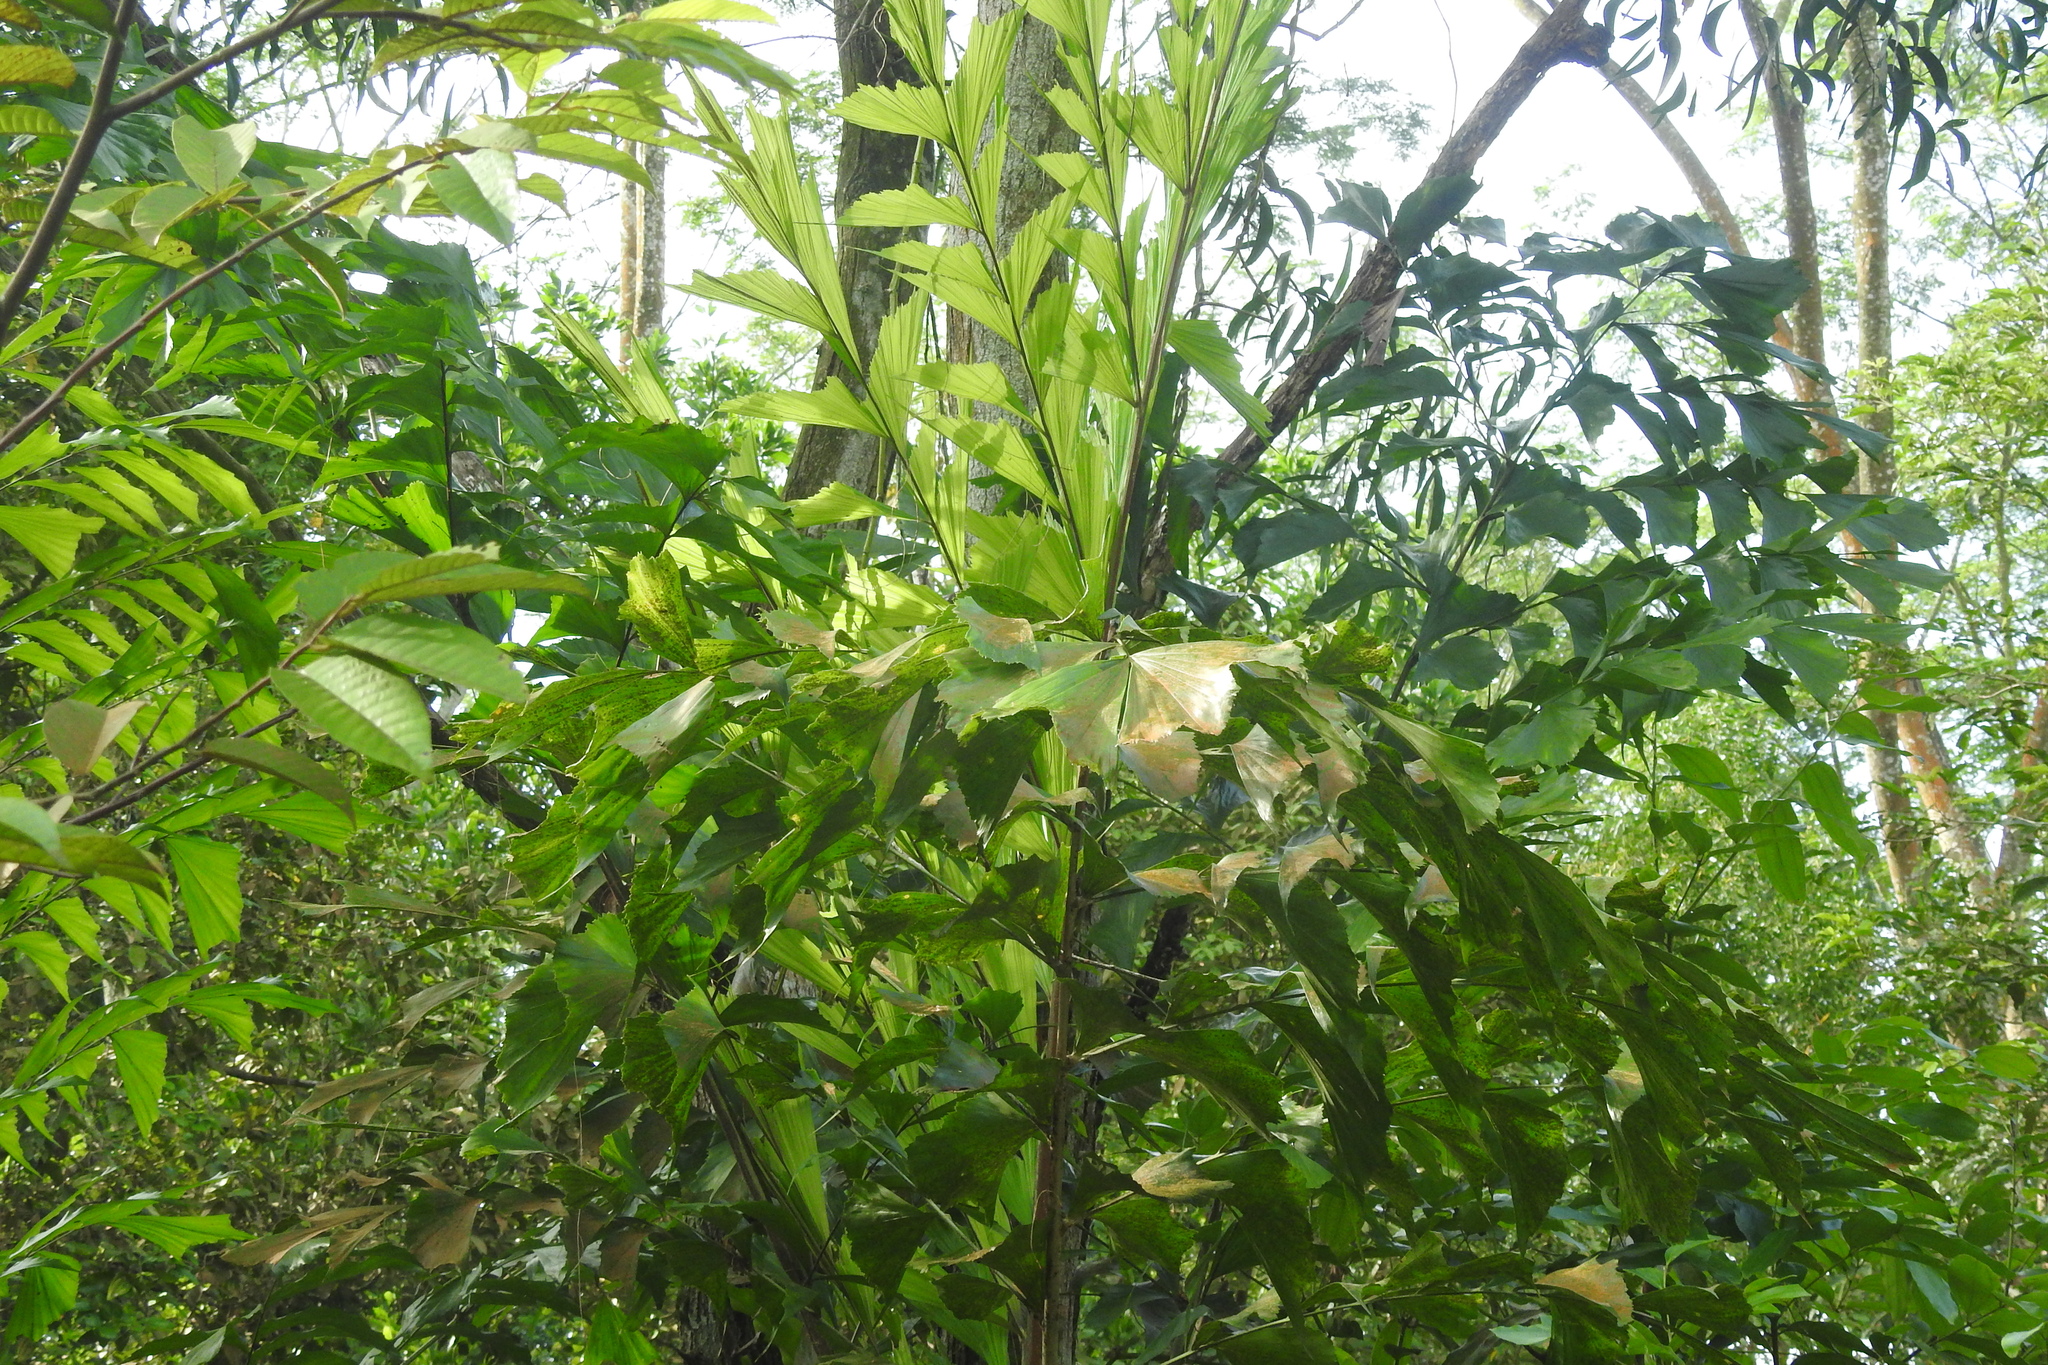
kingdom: Plantae
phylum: Tracheophyta
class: Liliopsida
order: Arecales
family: Arecaceae
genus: Caryota
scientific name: Caryota mitis
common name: Burmese fishtail palm
